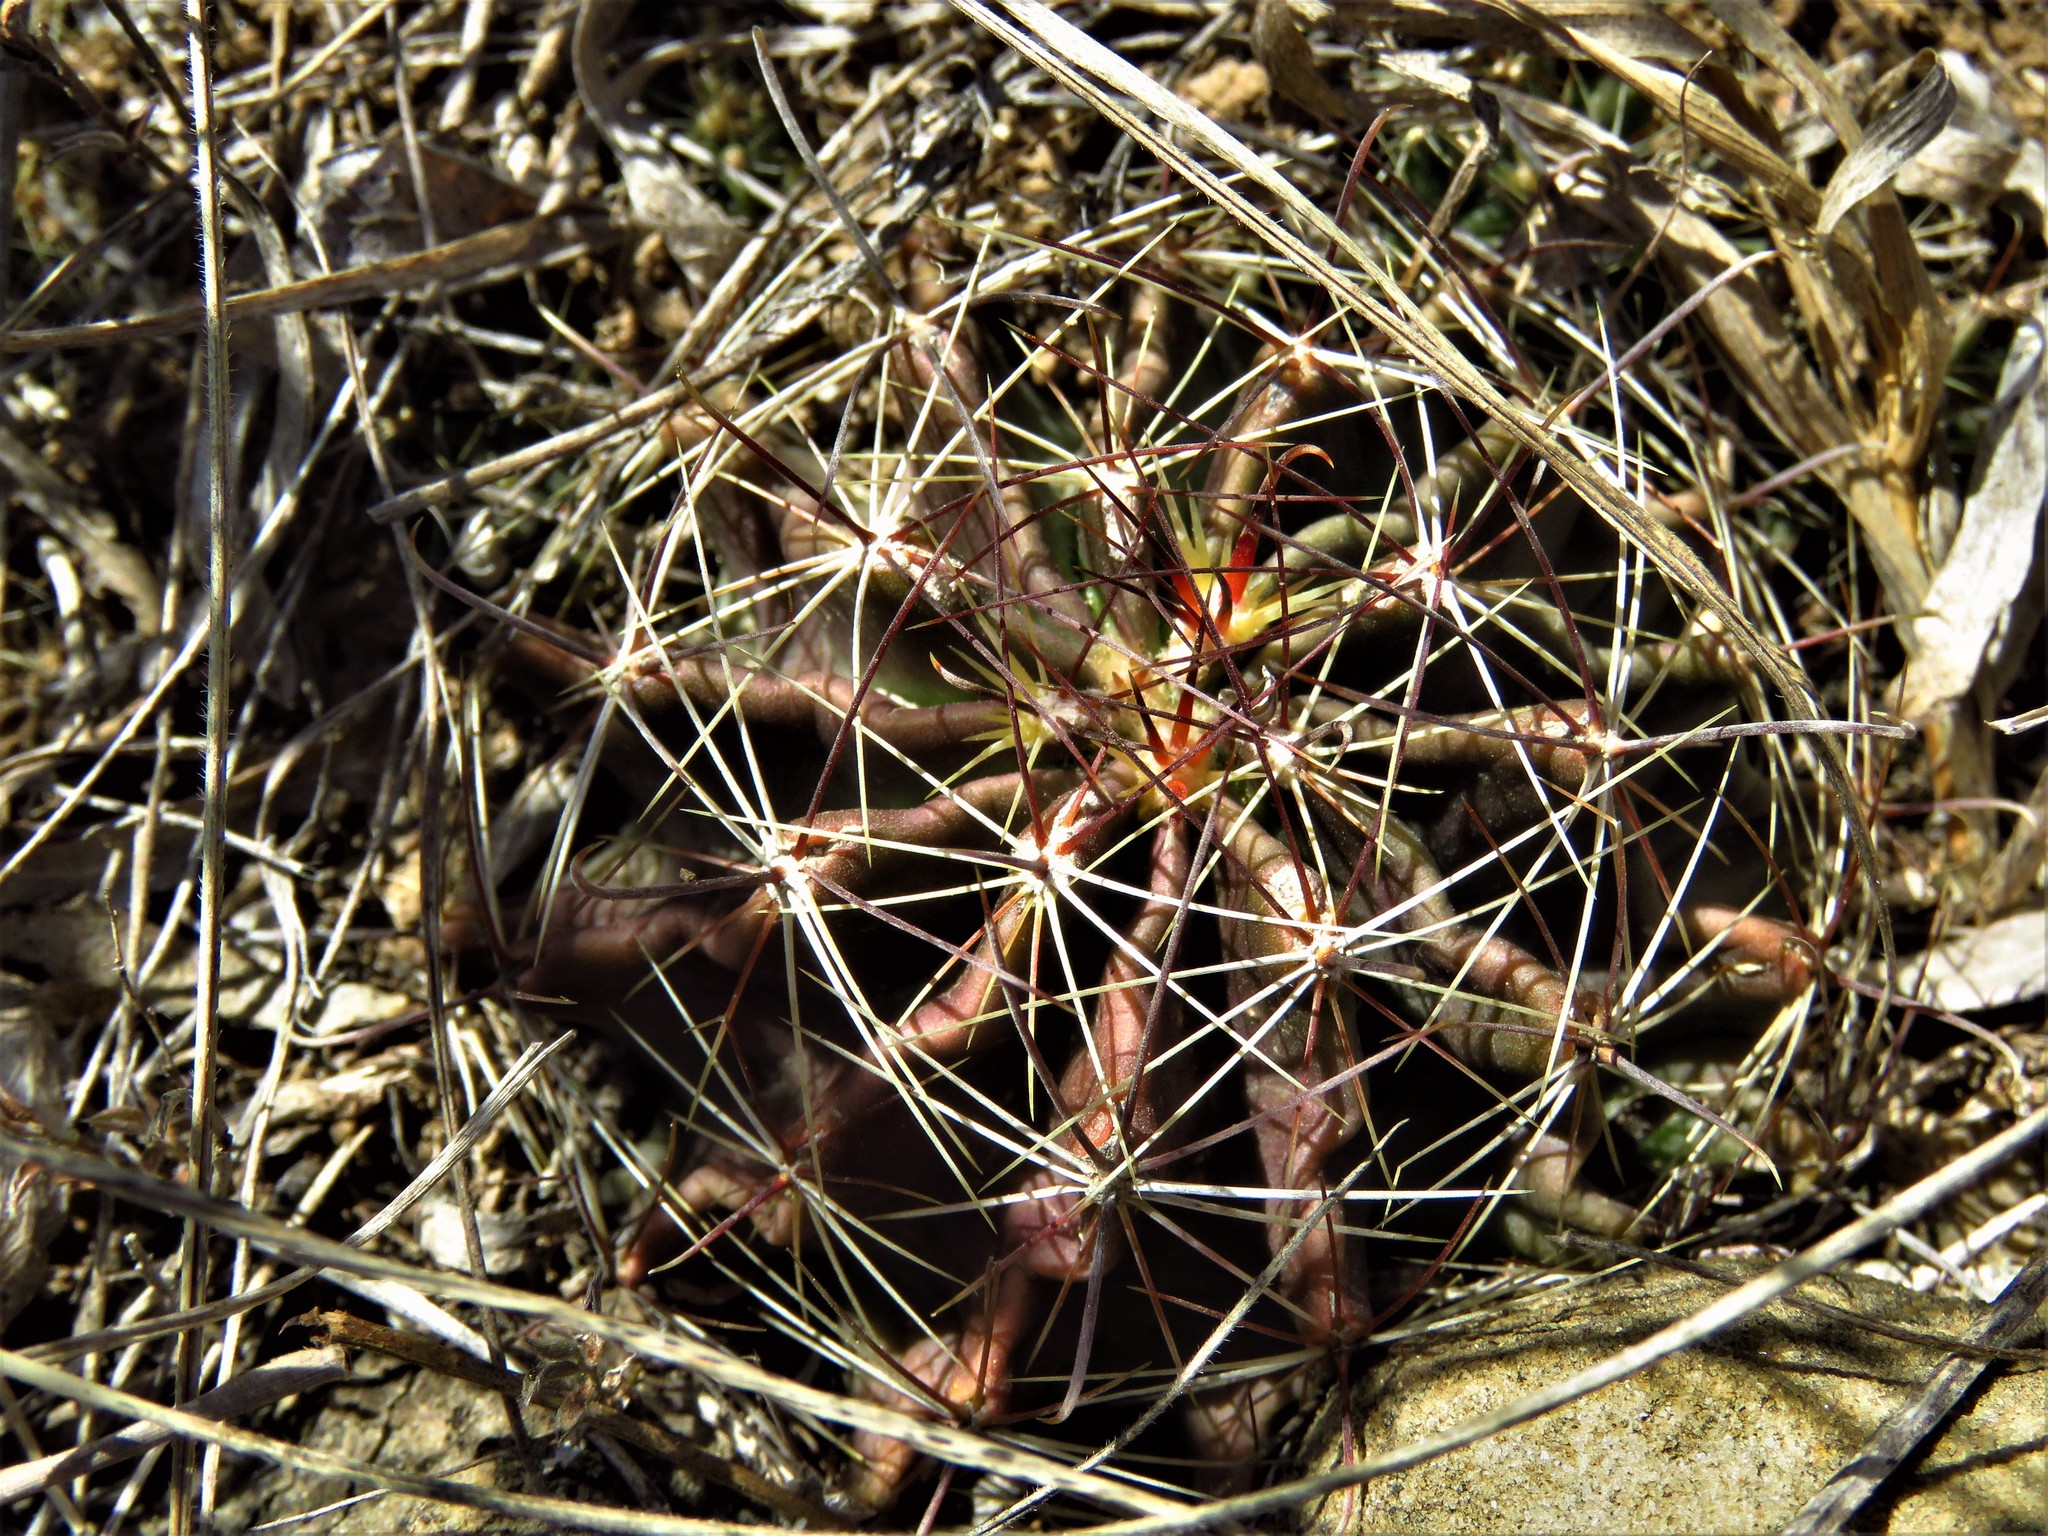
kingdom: Plantae
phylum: Tracheophyta
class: Magnoliopsida
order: Caryophyllales
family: Cactaceae
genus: Thelocactus
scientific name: Thelocactus setispinus
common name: Miniature barrel cactus
